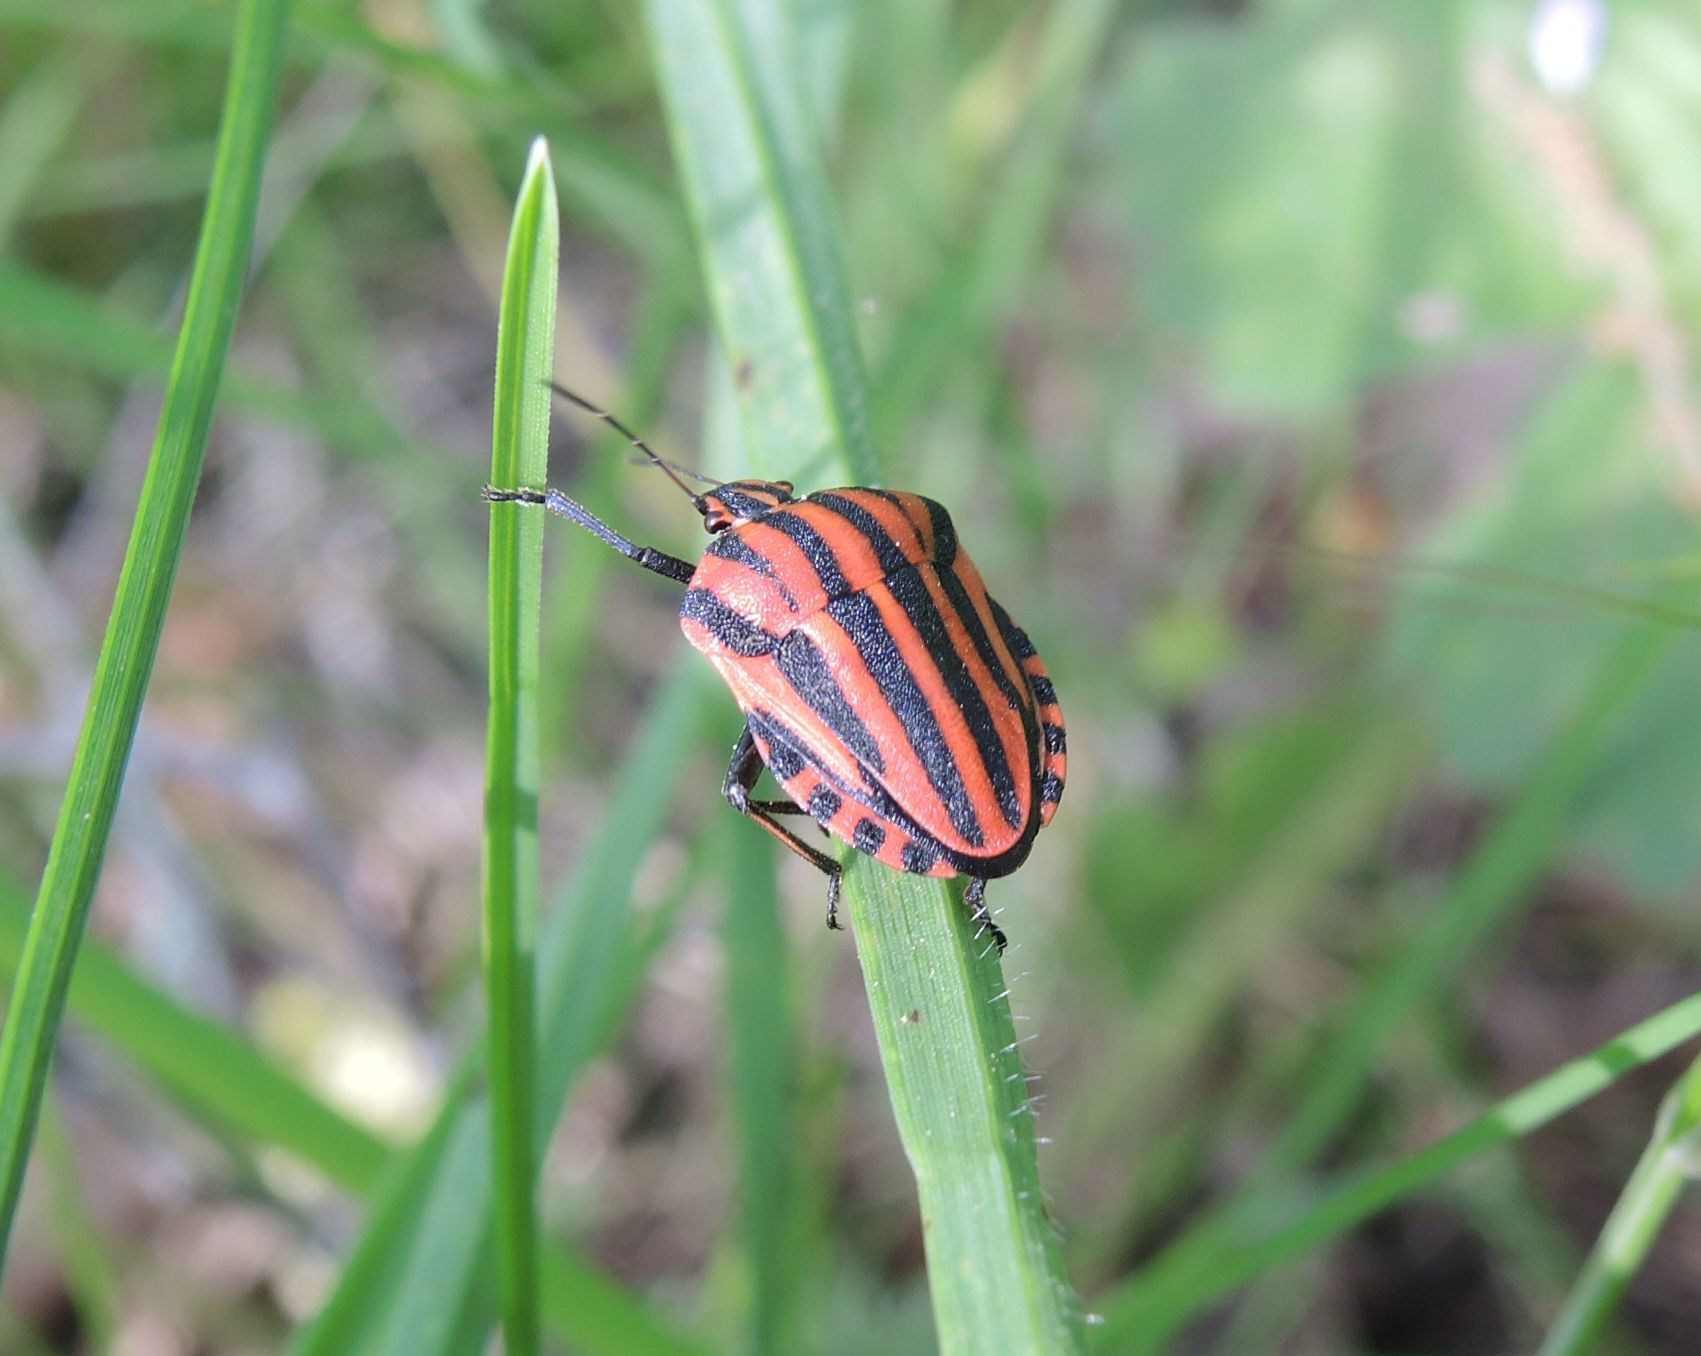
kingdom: Animalia
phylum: Arthropoda
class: Insecta
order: Hemiptera
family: Pentatomidae
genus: Graphosoma
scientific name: Graphosoma italicum
